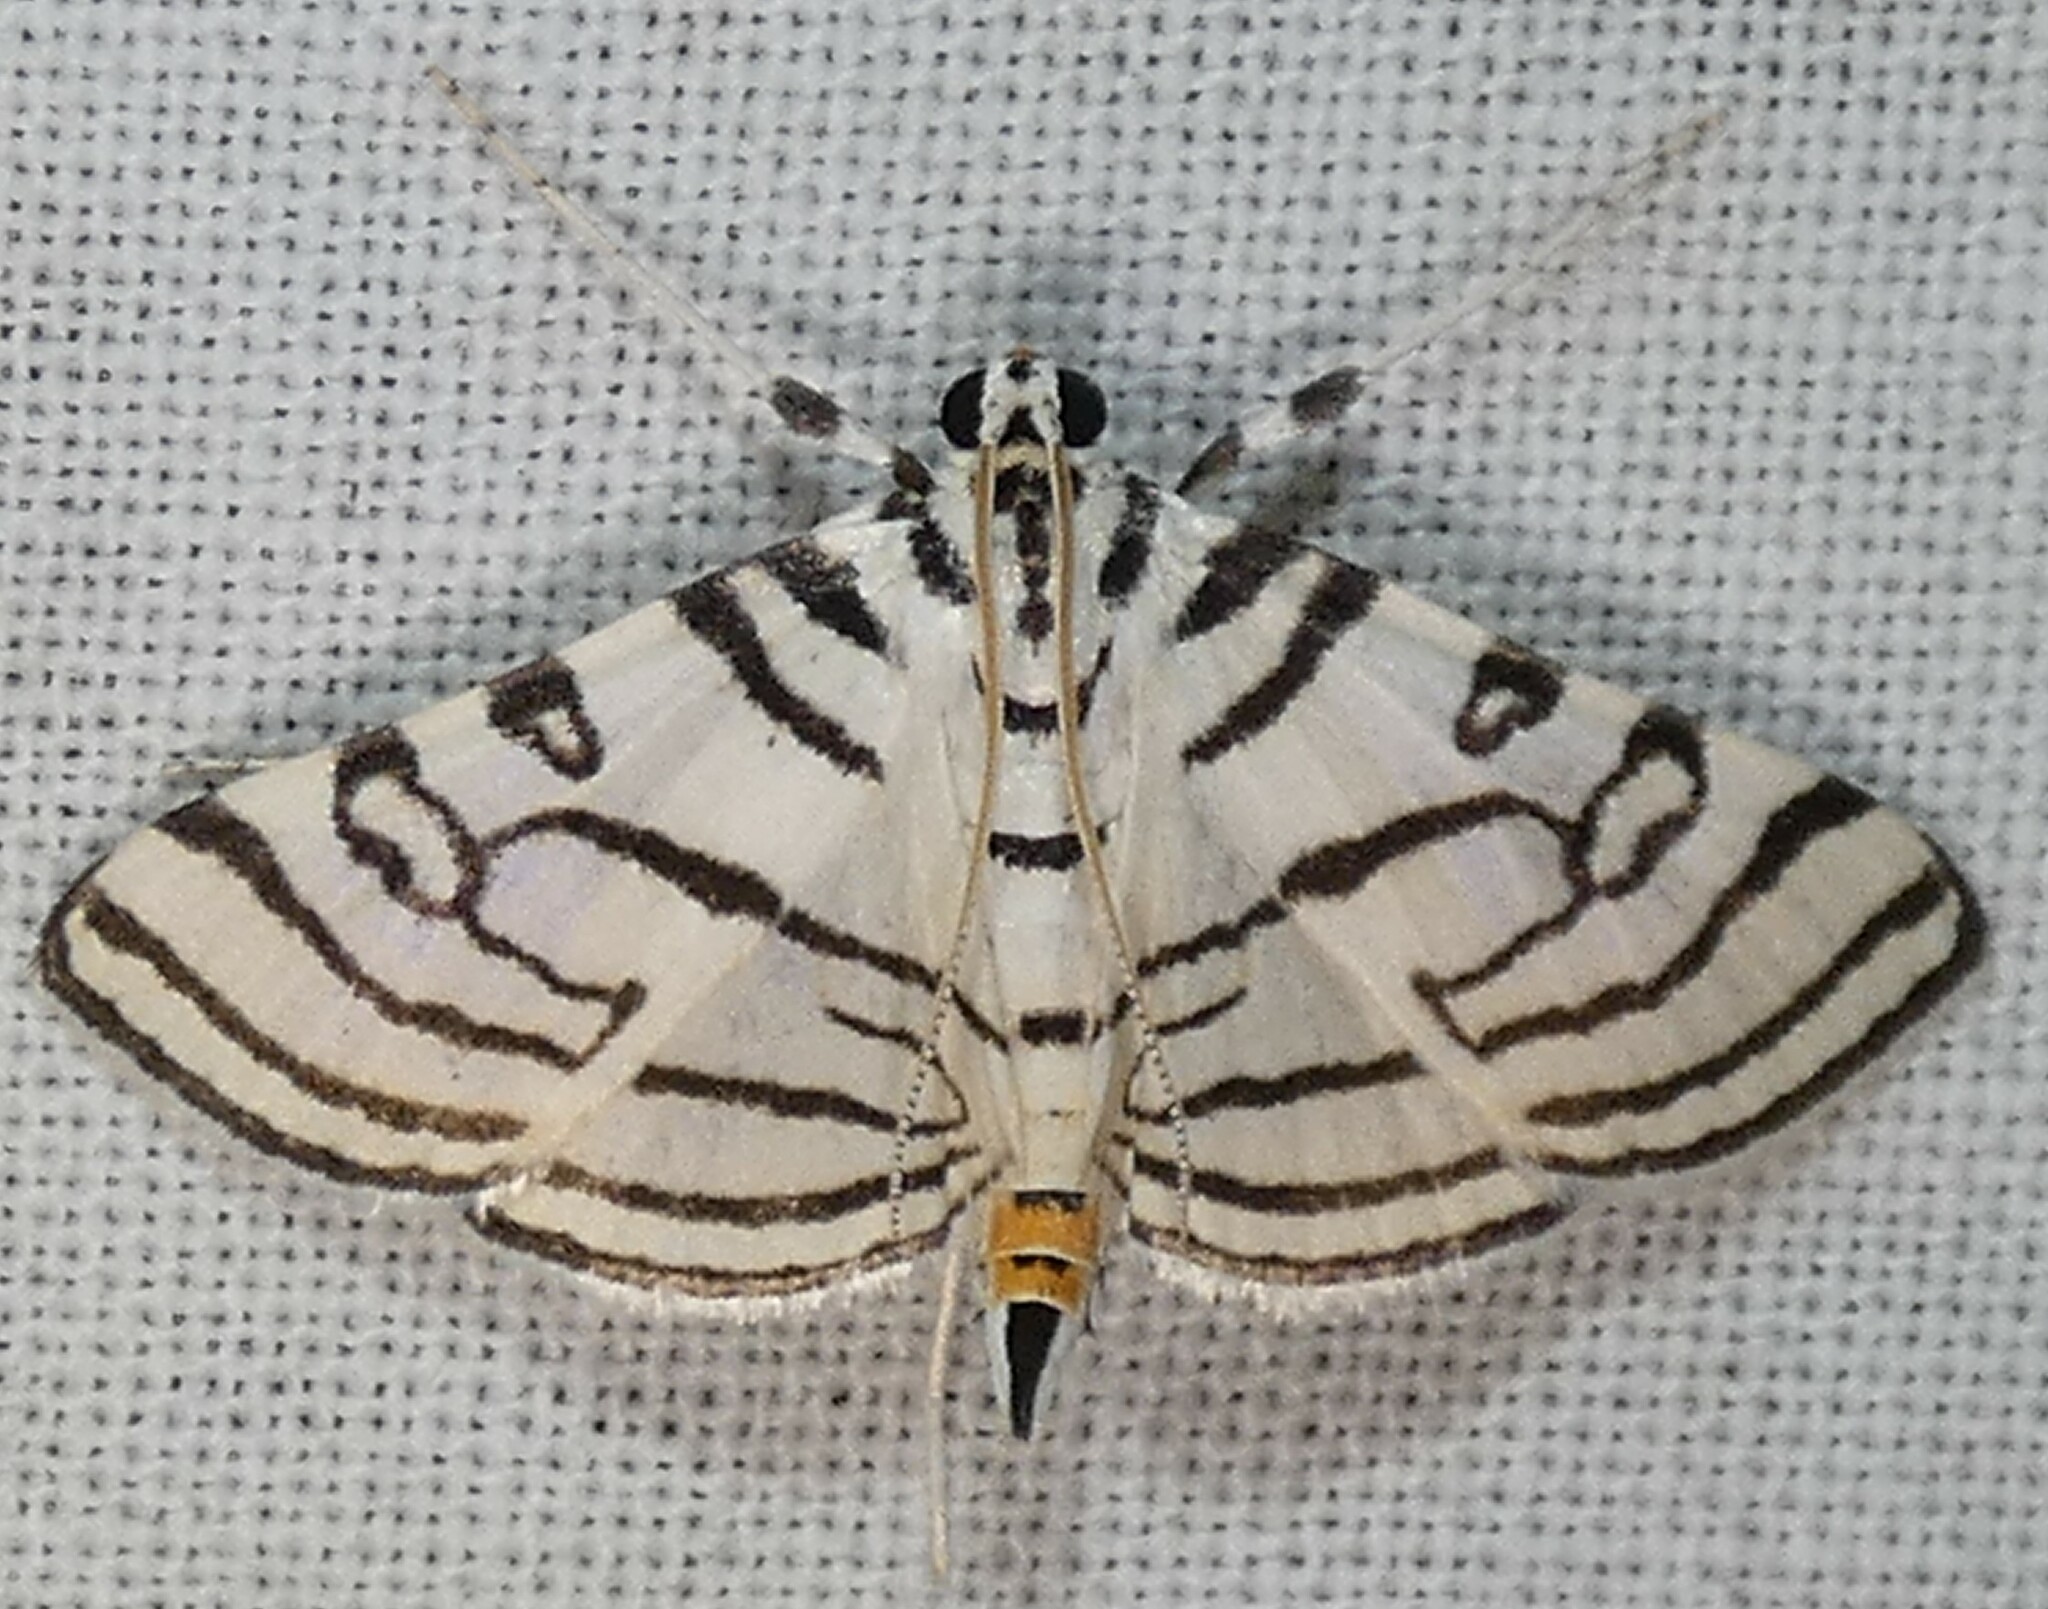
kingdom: Animalia
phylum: Arthropoda
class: Insecta
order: Lepidoptera
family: Crambidae
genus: Conchylodes
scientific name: Conchylodes concinnalis
